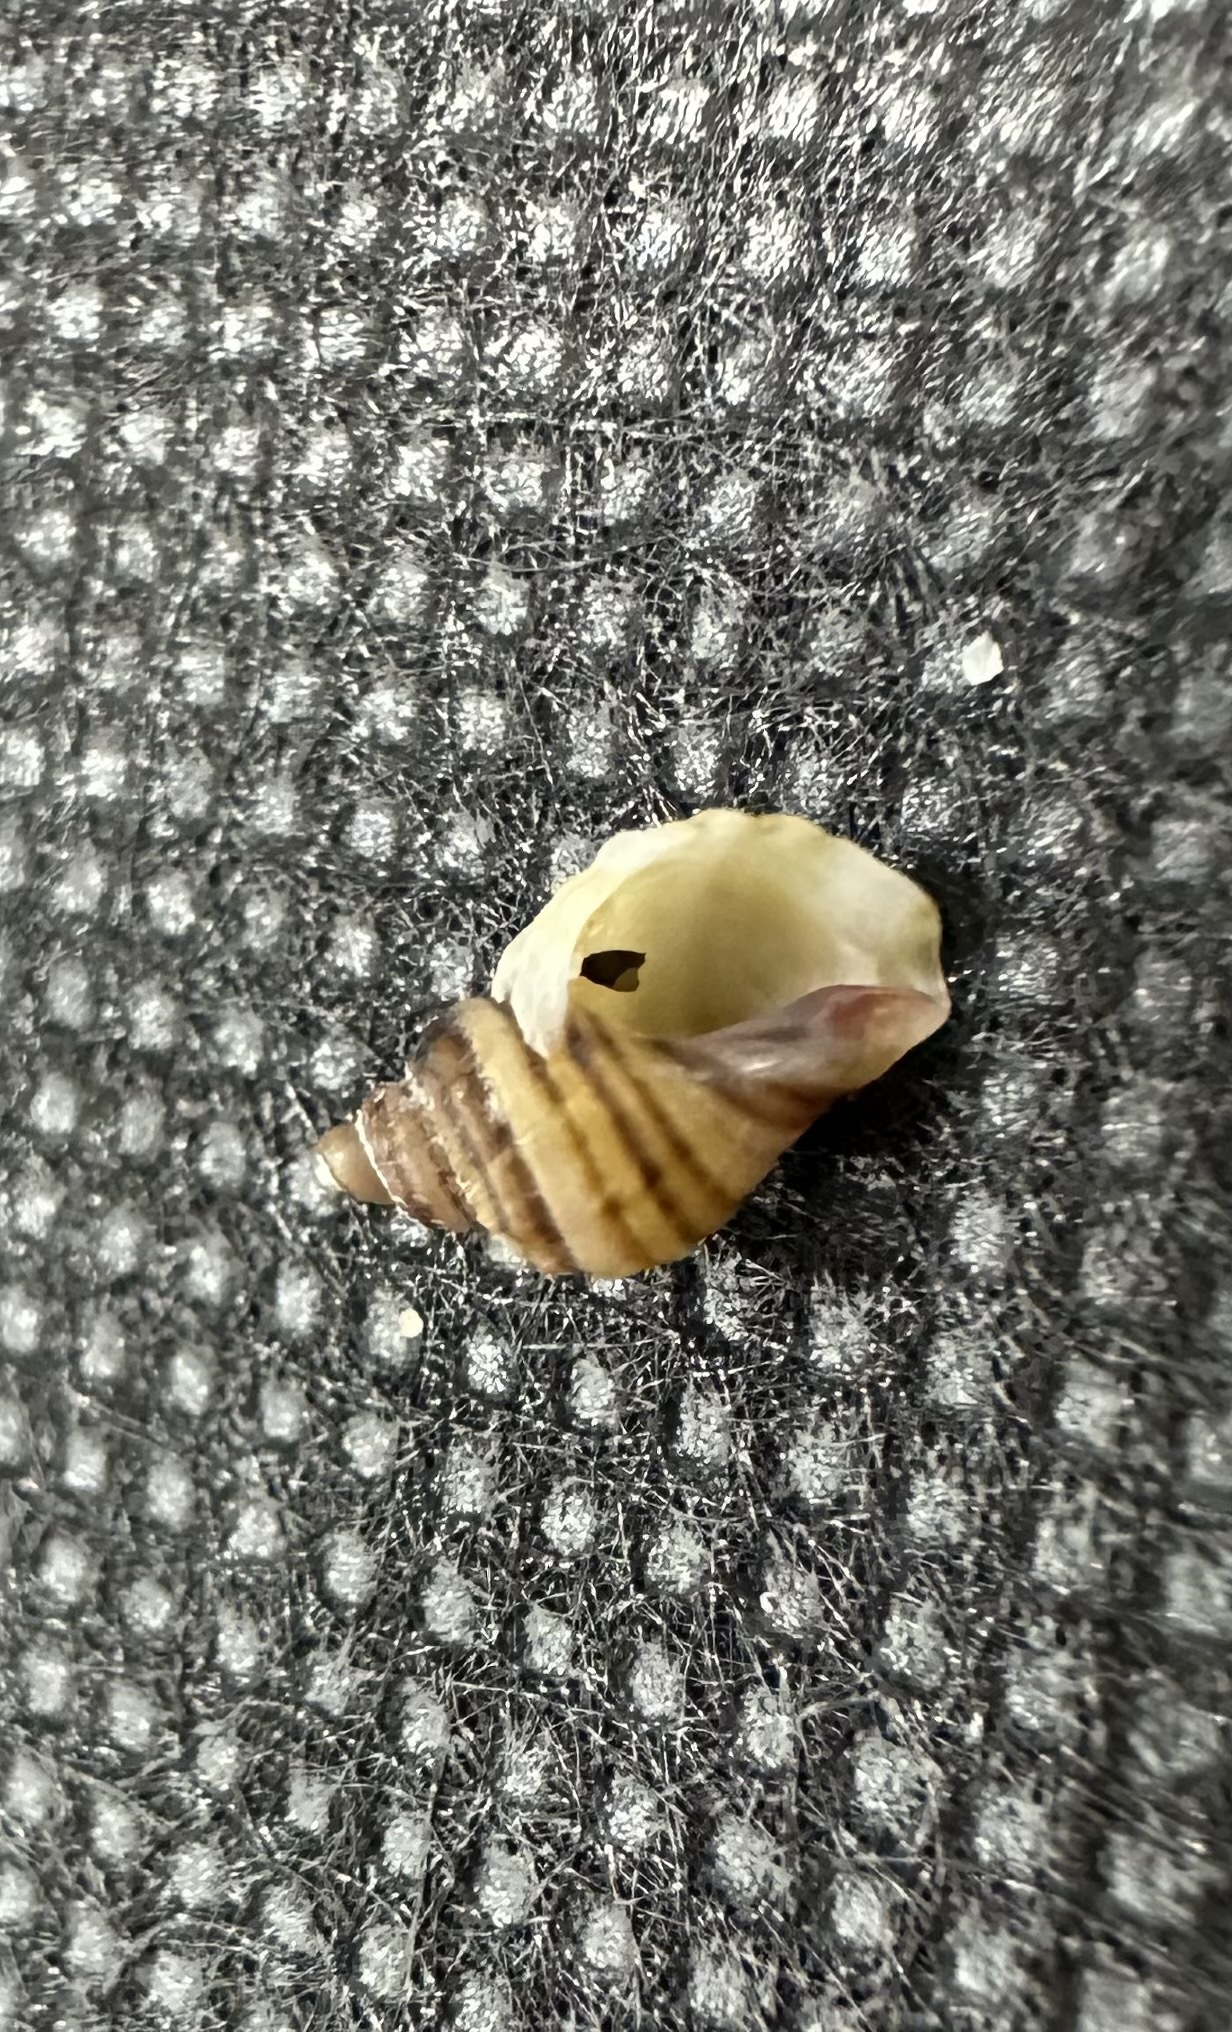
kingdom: Animalia
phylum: Mollusca
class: Gastropoda
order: Neogastropoda
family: Muricidae
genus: Nucella
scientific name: Nucella lapillus
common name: Dog whelk
